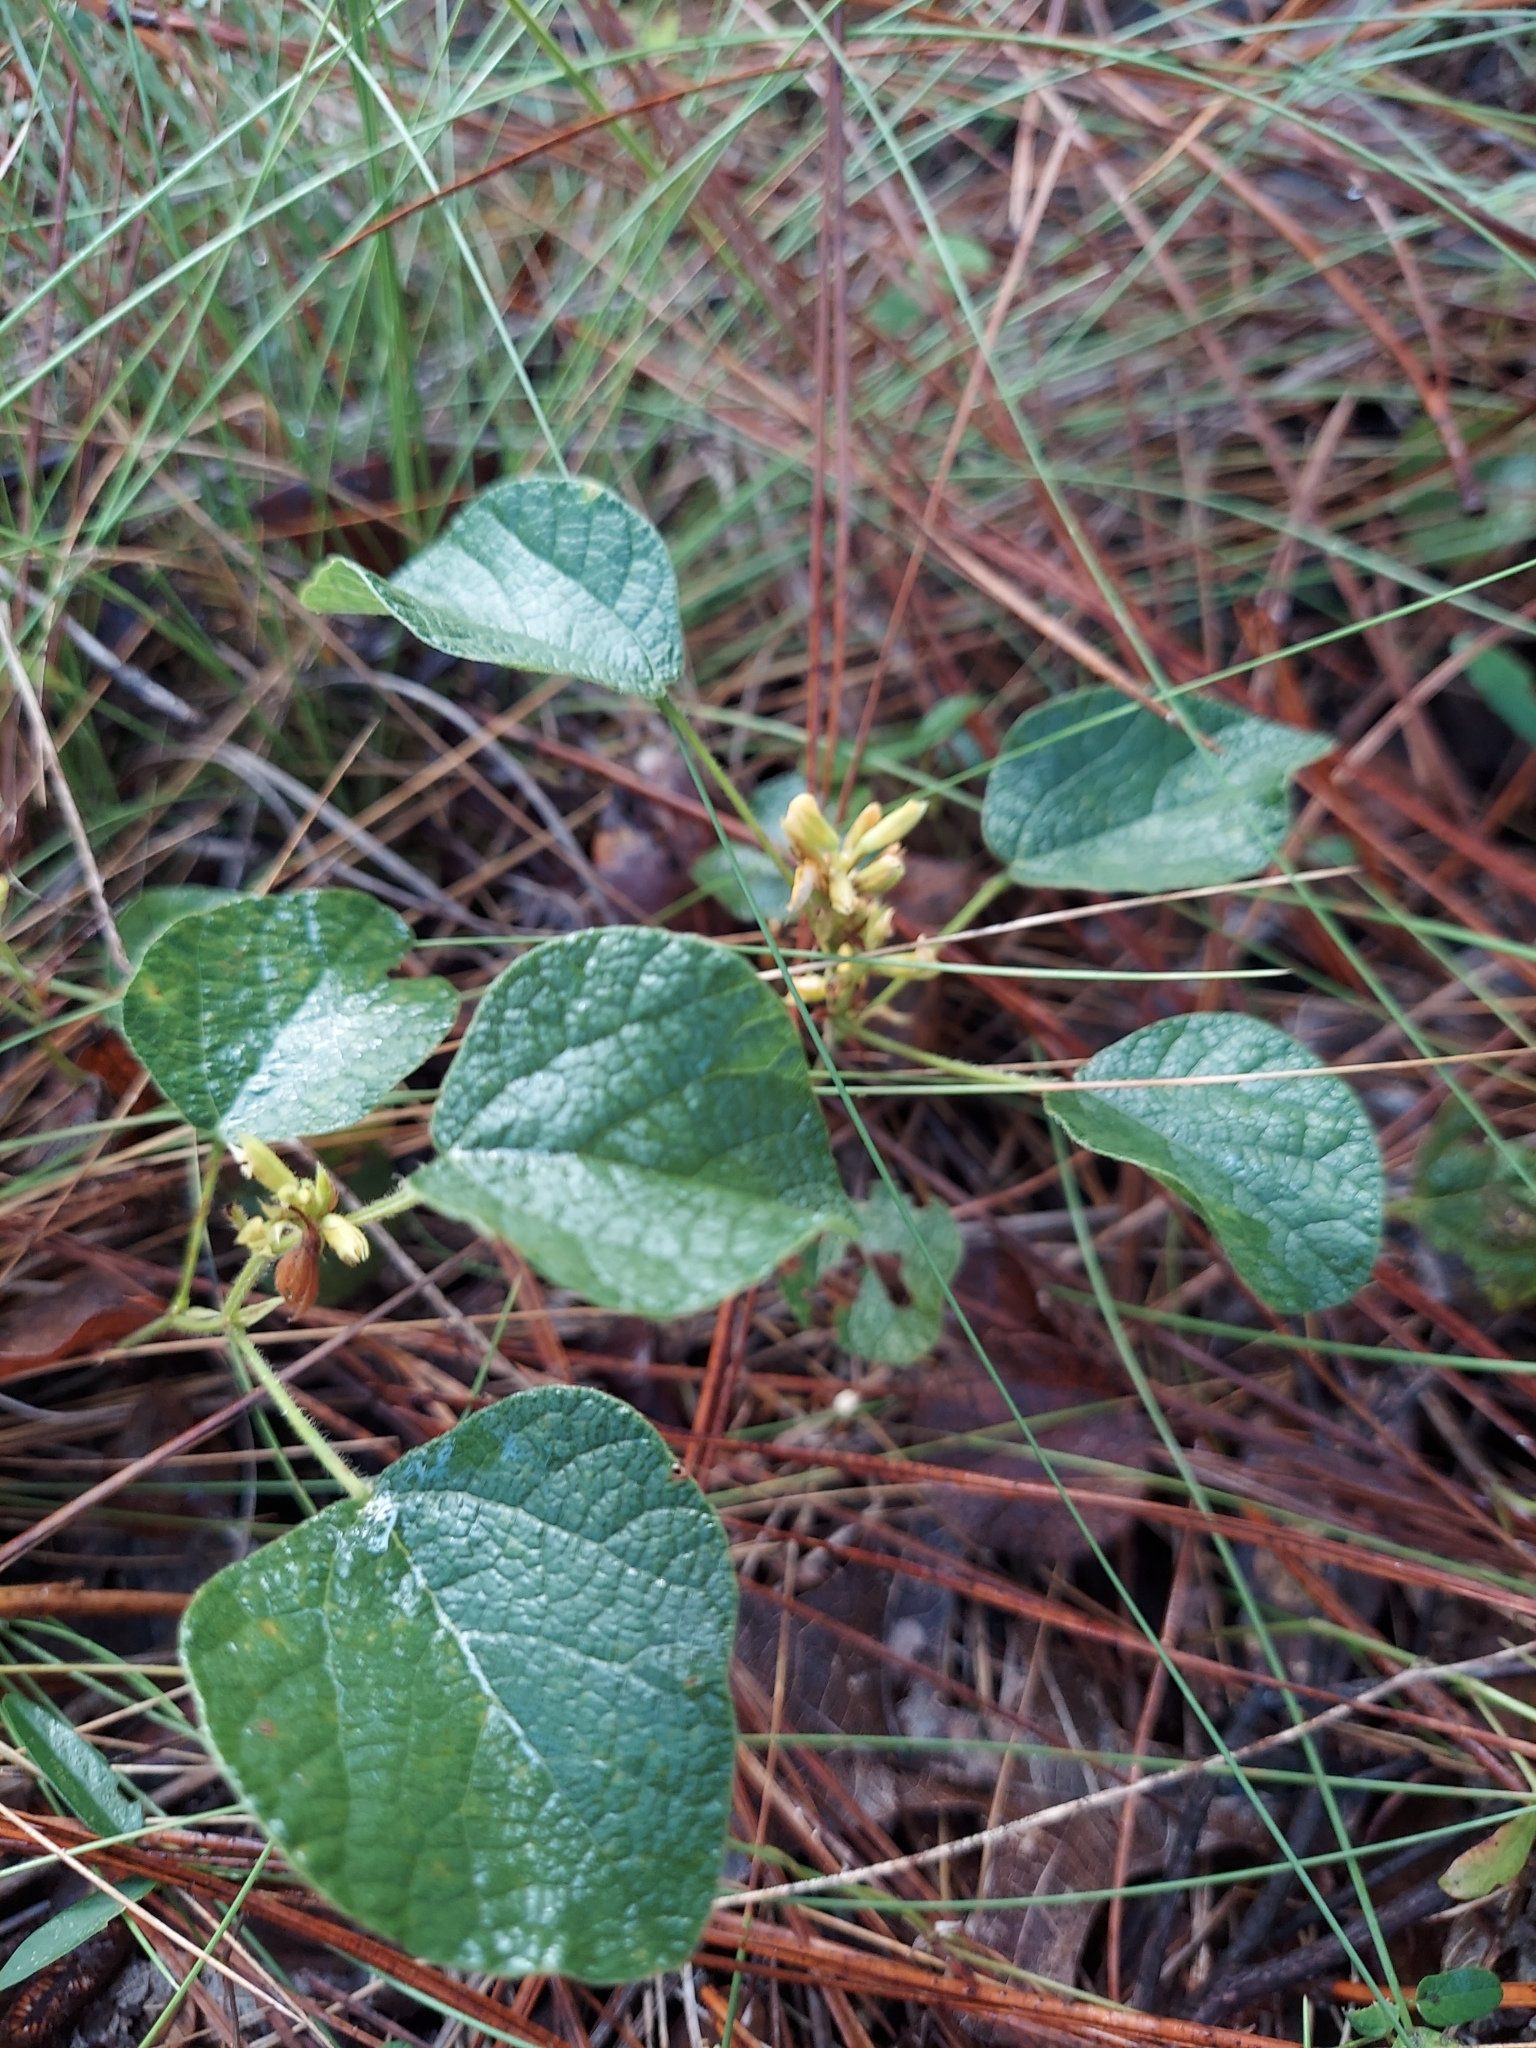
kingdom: Plantae
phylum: Tracheophyta
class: Magnoliopsida
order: Fabales
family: Fabaceae
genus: Rhynchosia
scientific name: Rhynchosia reniformis
